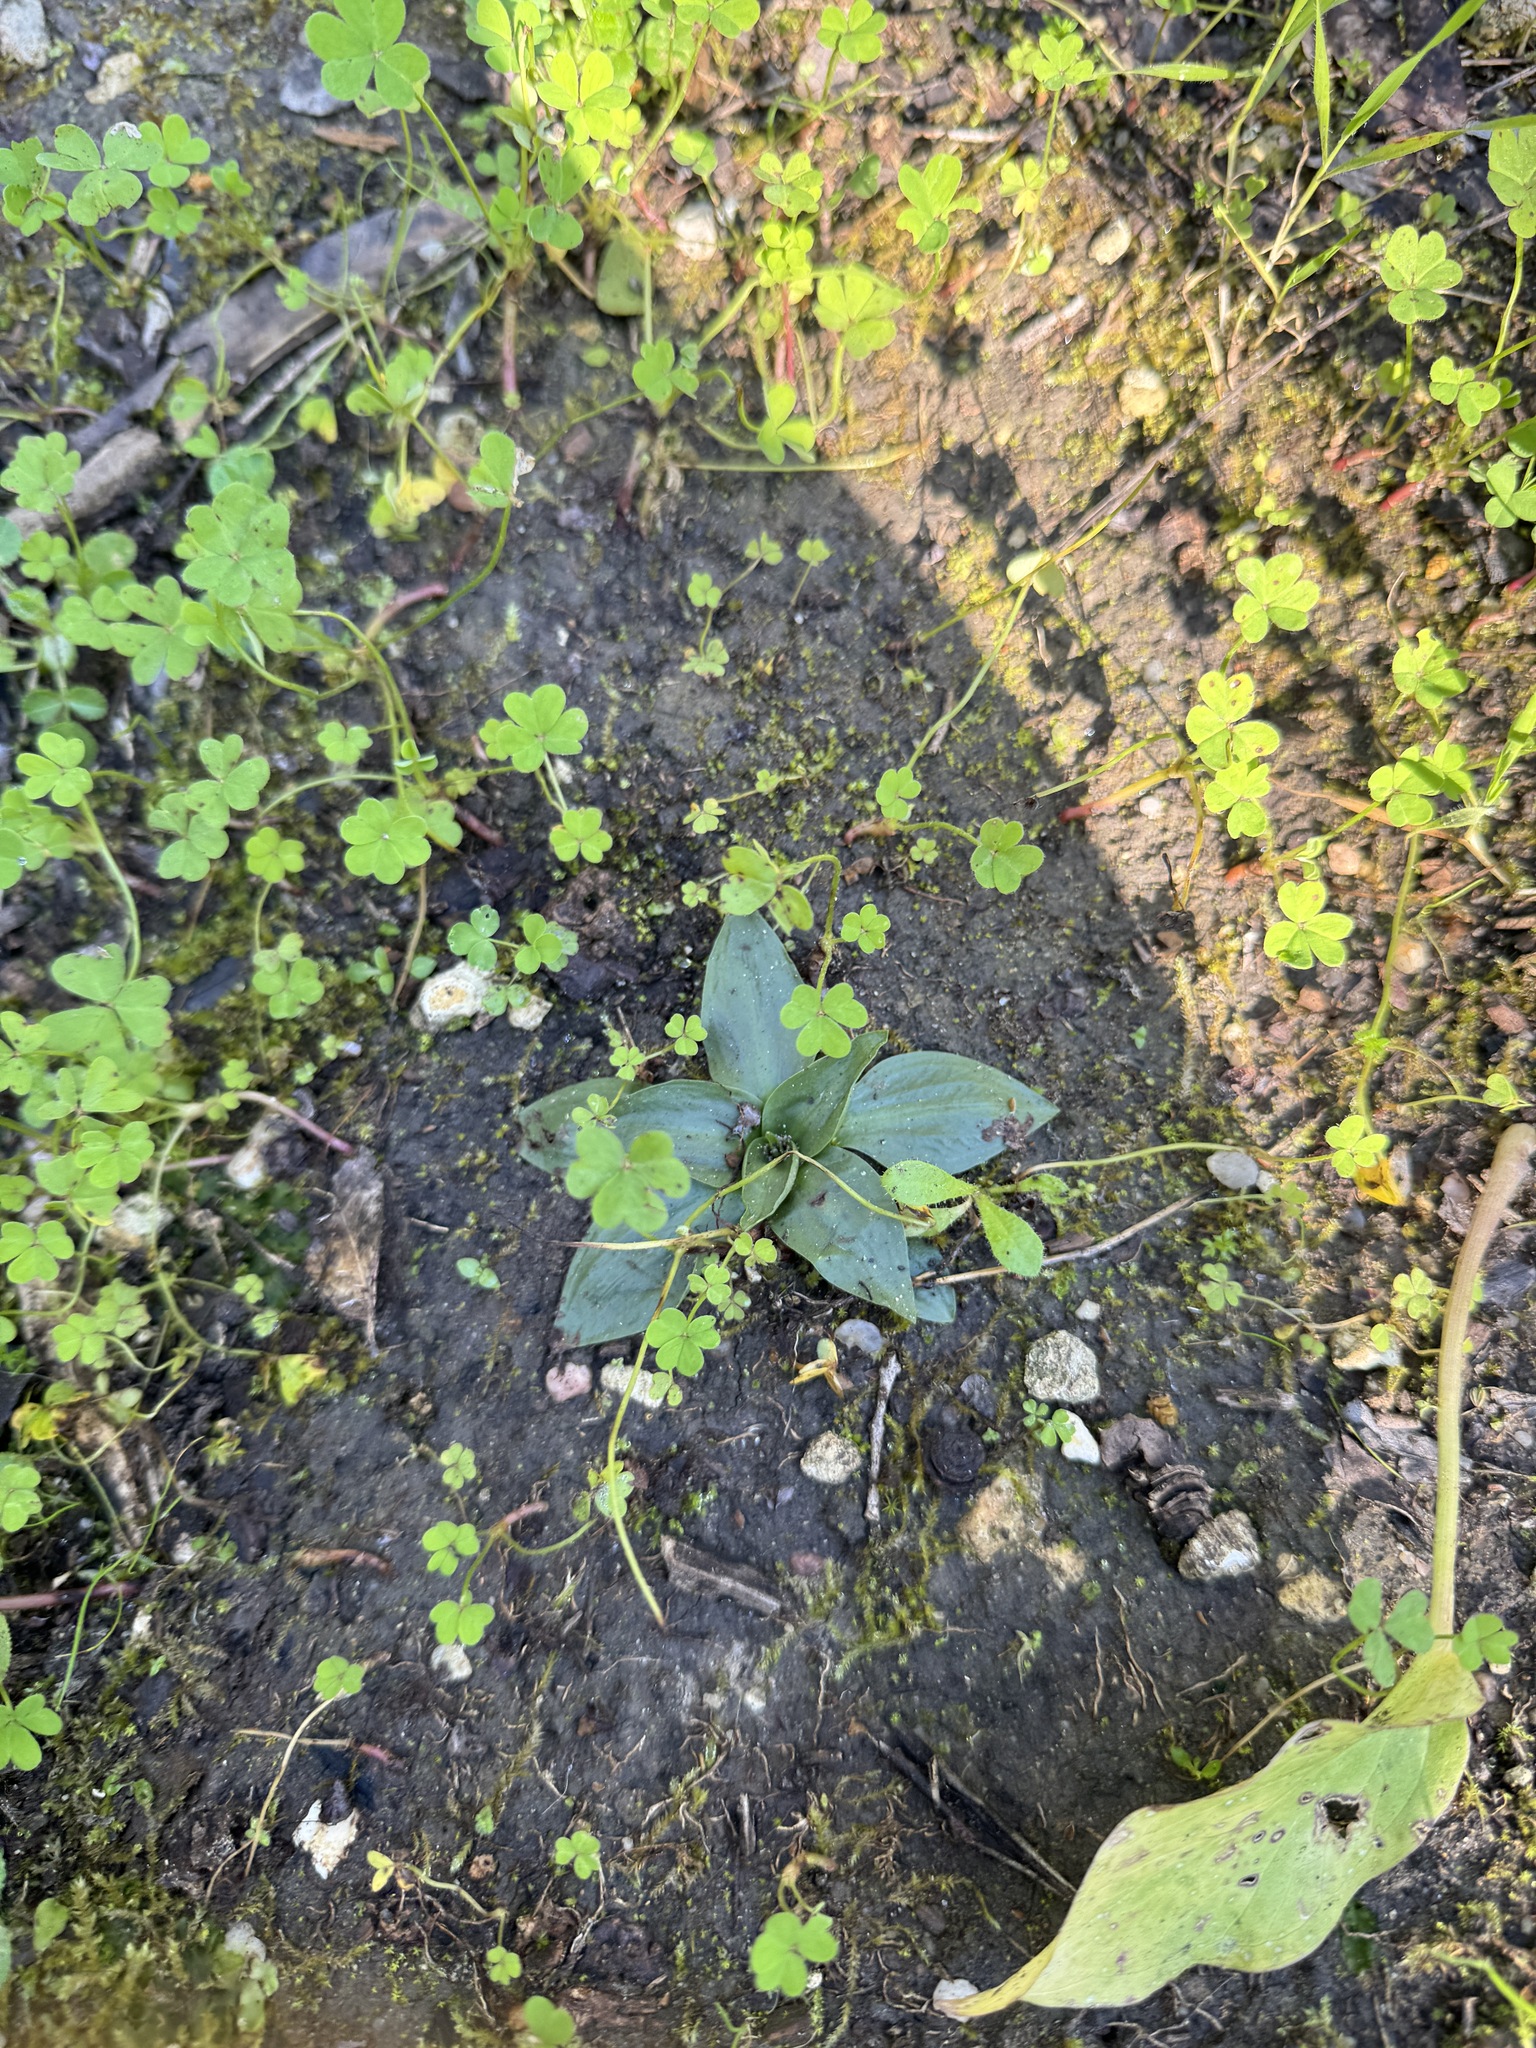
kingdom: Plantae
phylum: Tracheophyta
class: Liliopsida
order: Asparagales
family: Orchidaceae
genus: Spiranthes
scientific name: Spiranthes spiralis
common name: Autumn lady's-tresses
